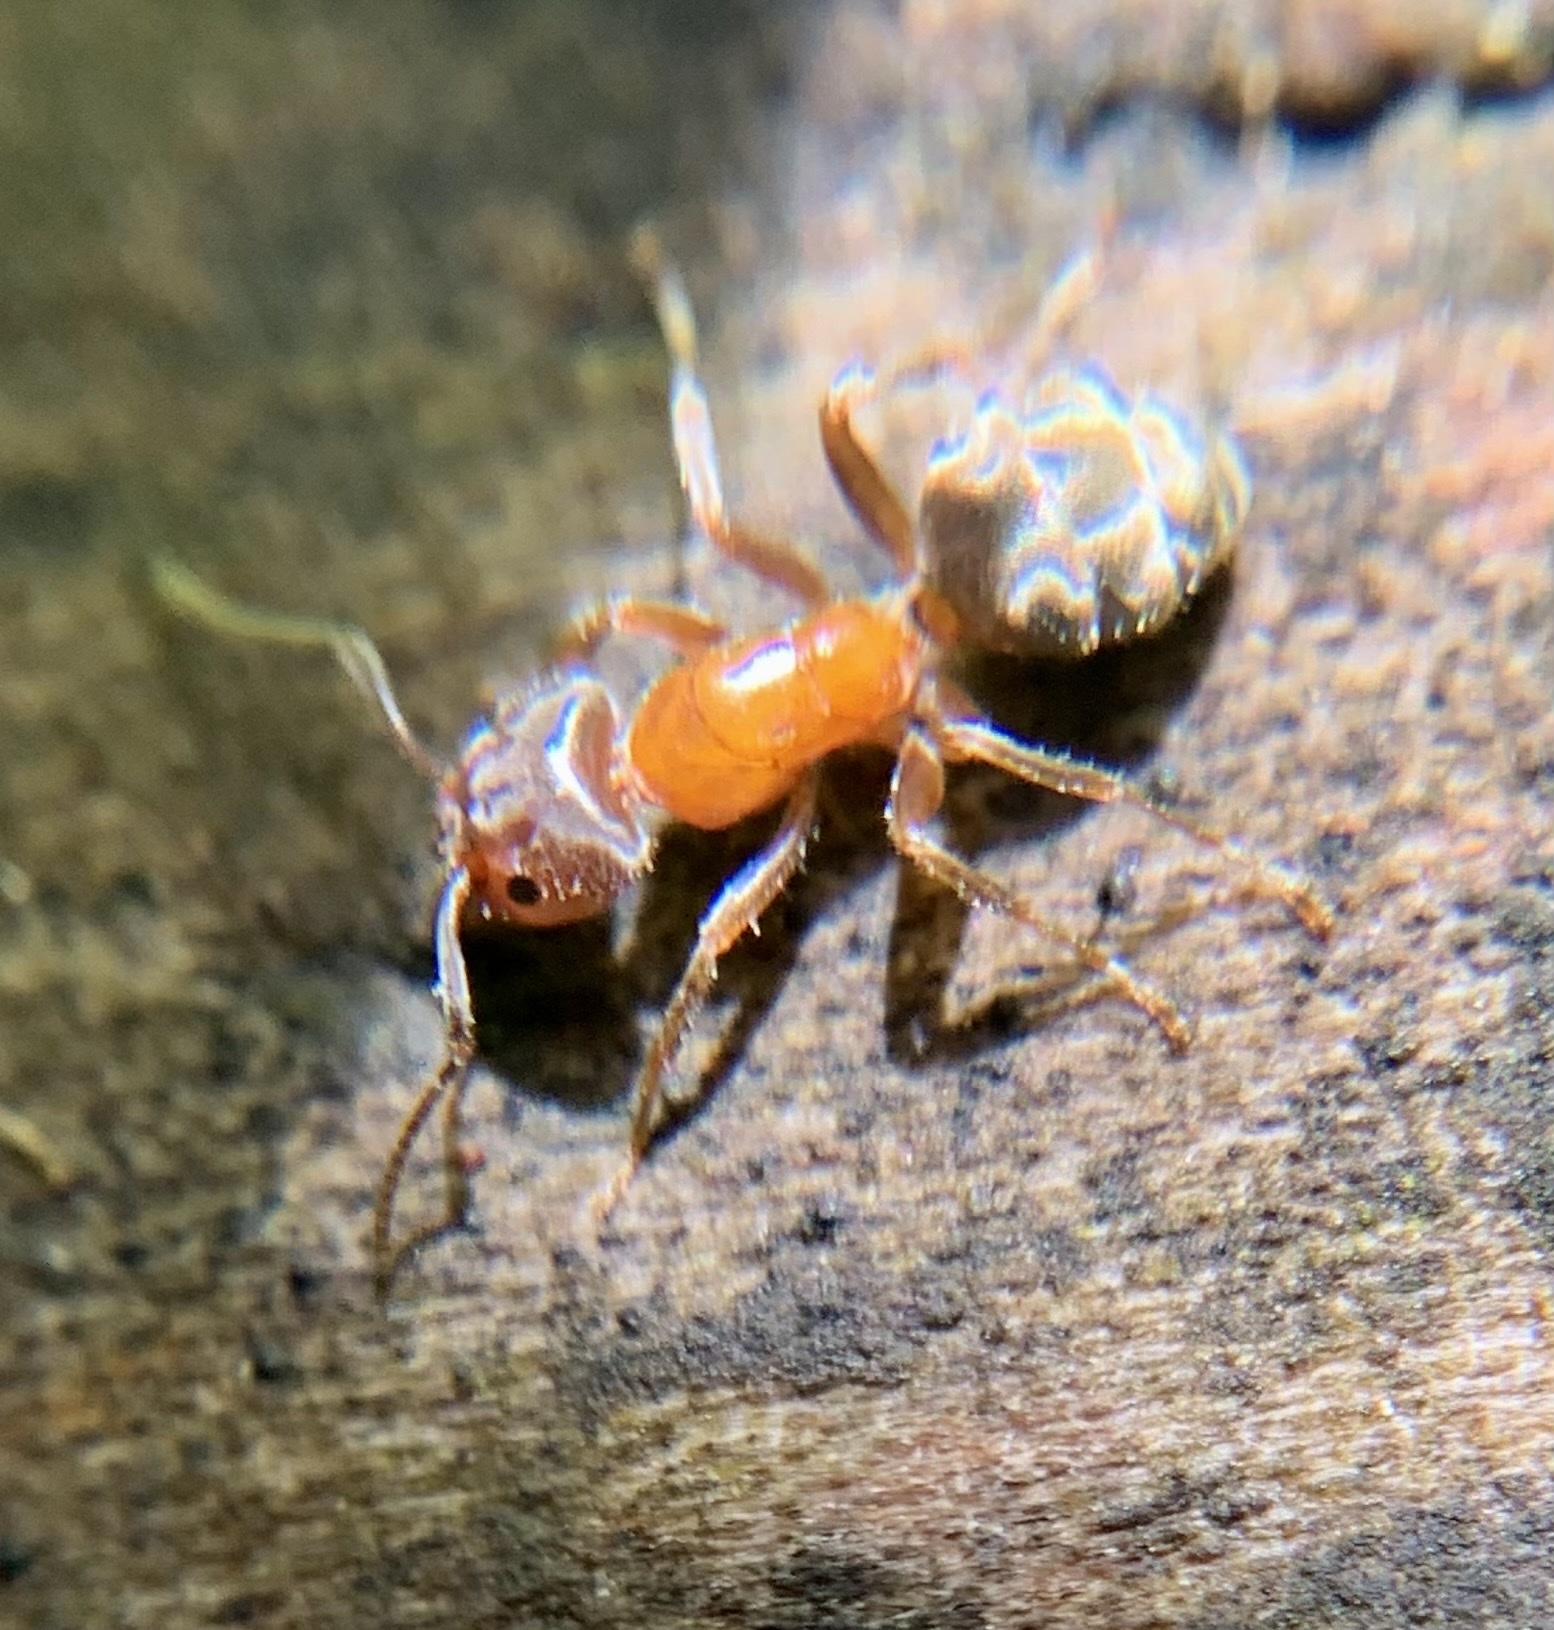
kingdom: Animalia
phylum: Arthropoda
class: Insecta
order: Hymenoptera
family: Formicidae
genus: Liometopum
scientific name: Liometopum occidentale
